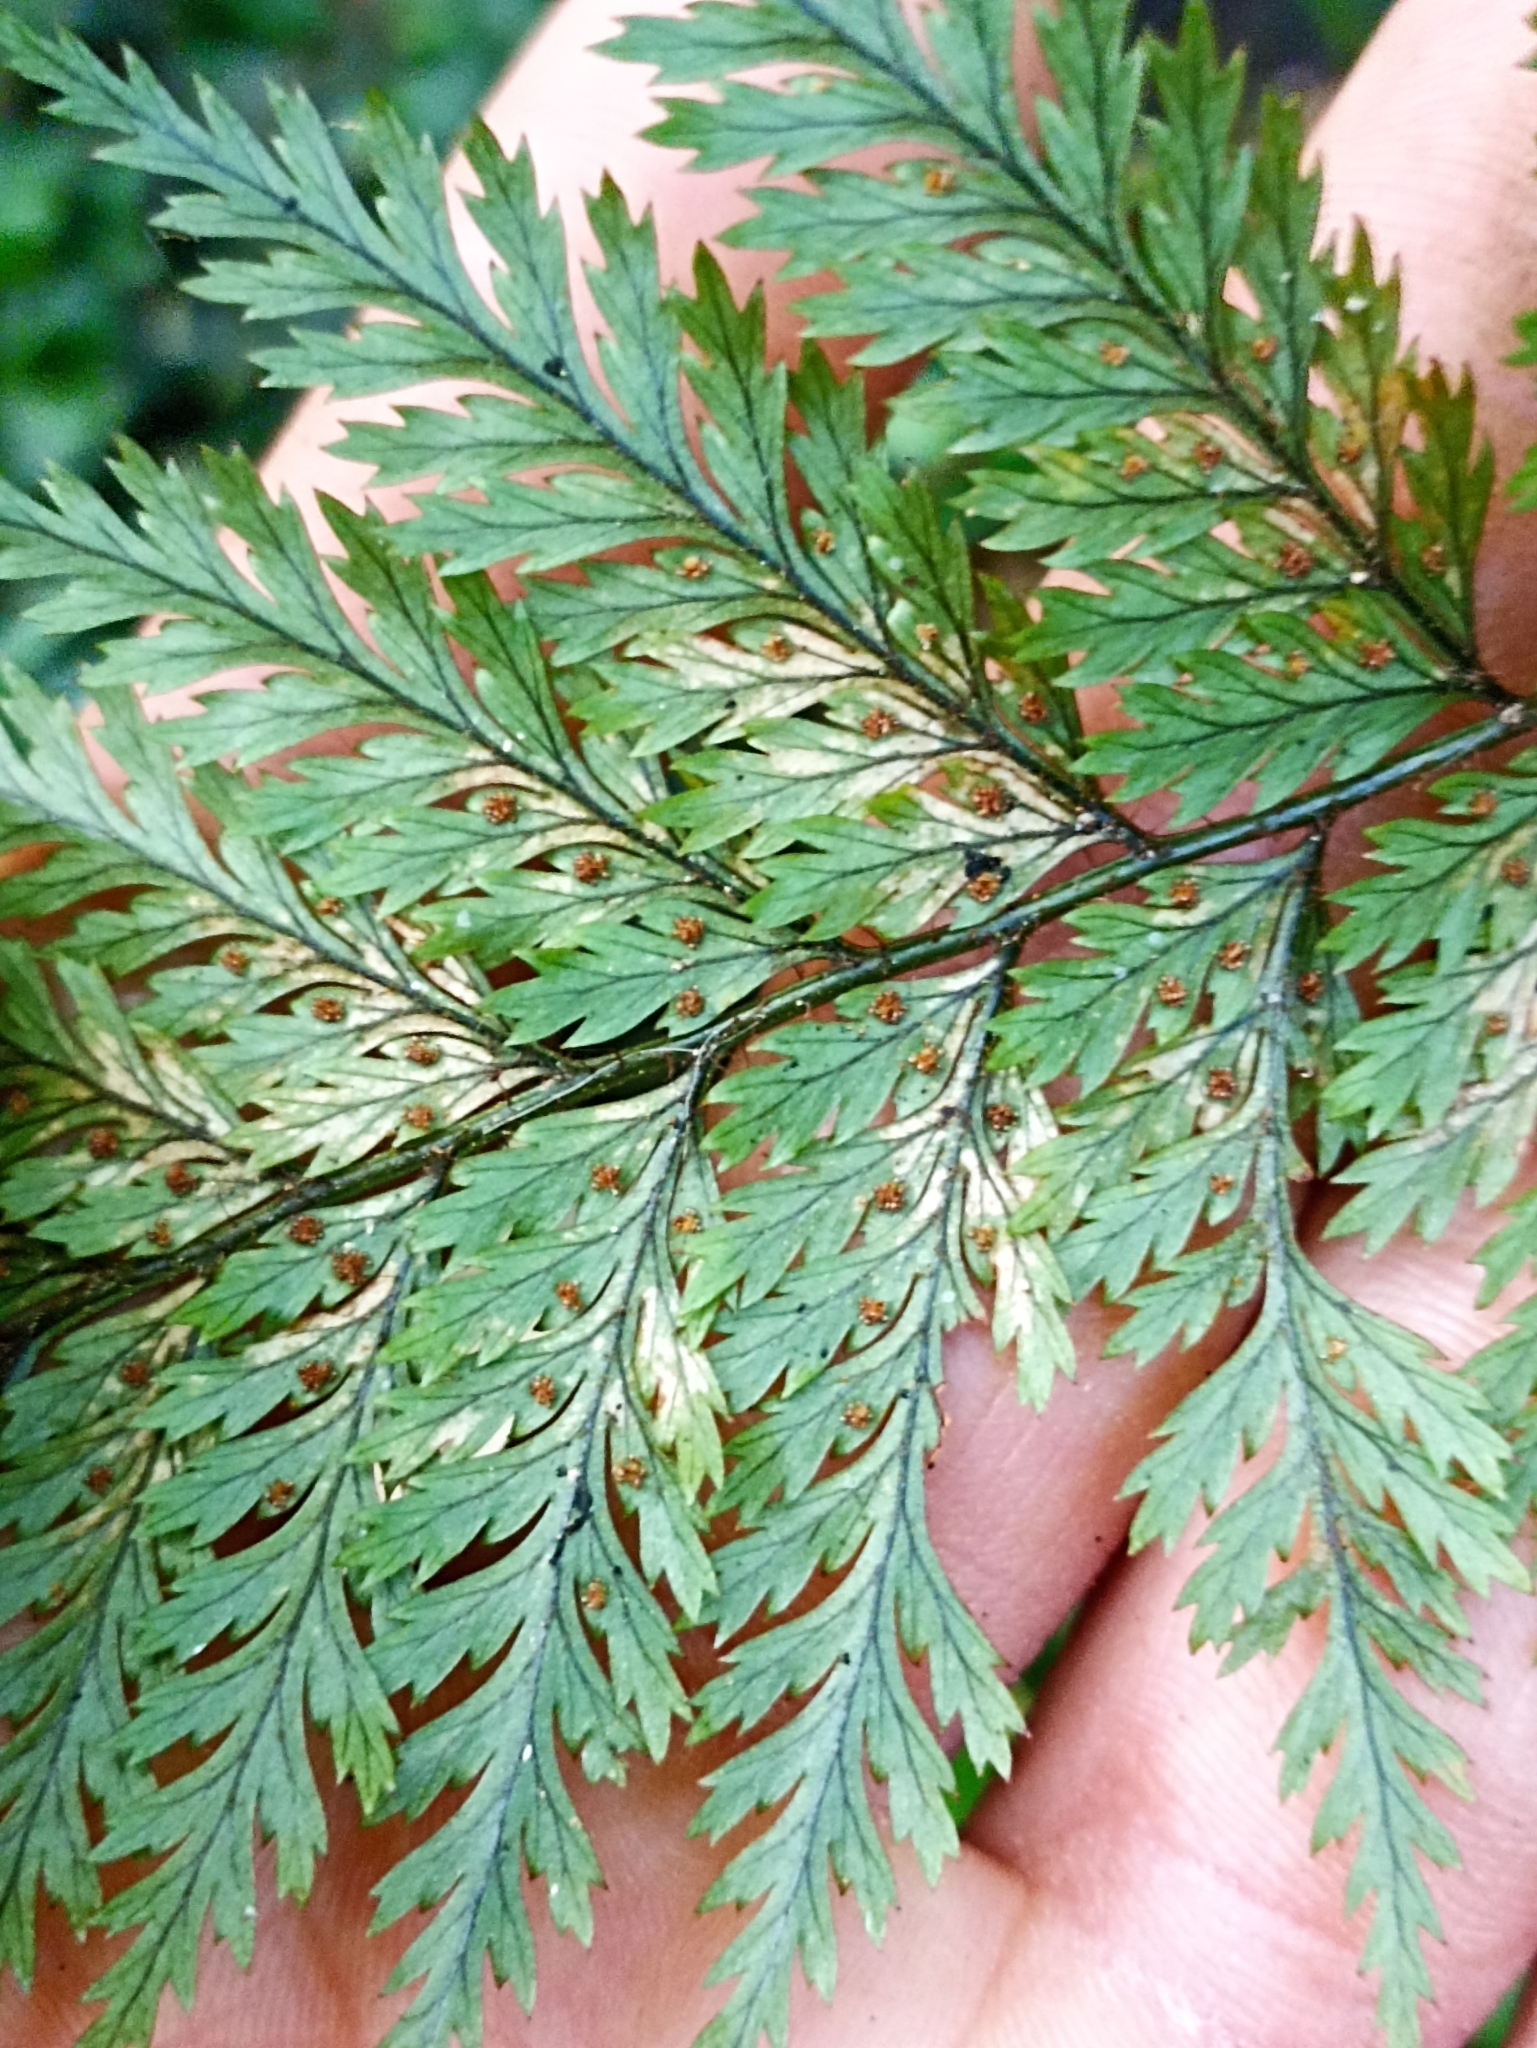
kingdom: Plantae
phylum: Tracheophyta
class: Polypodiopsida
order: Polypodiales
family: Dryopteridaceae
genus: Lastreopsis
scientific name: Lastreopsis hispida
